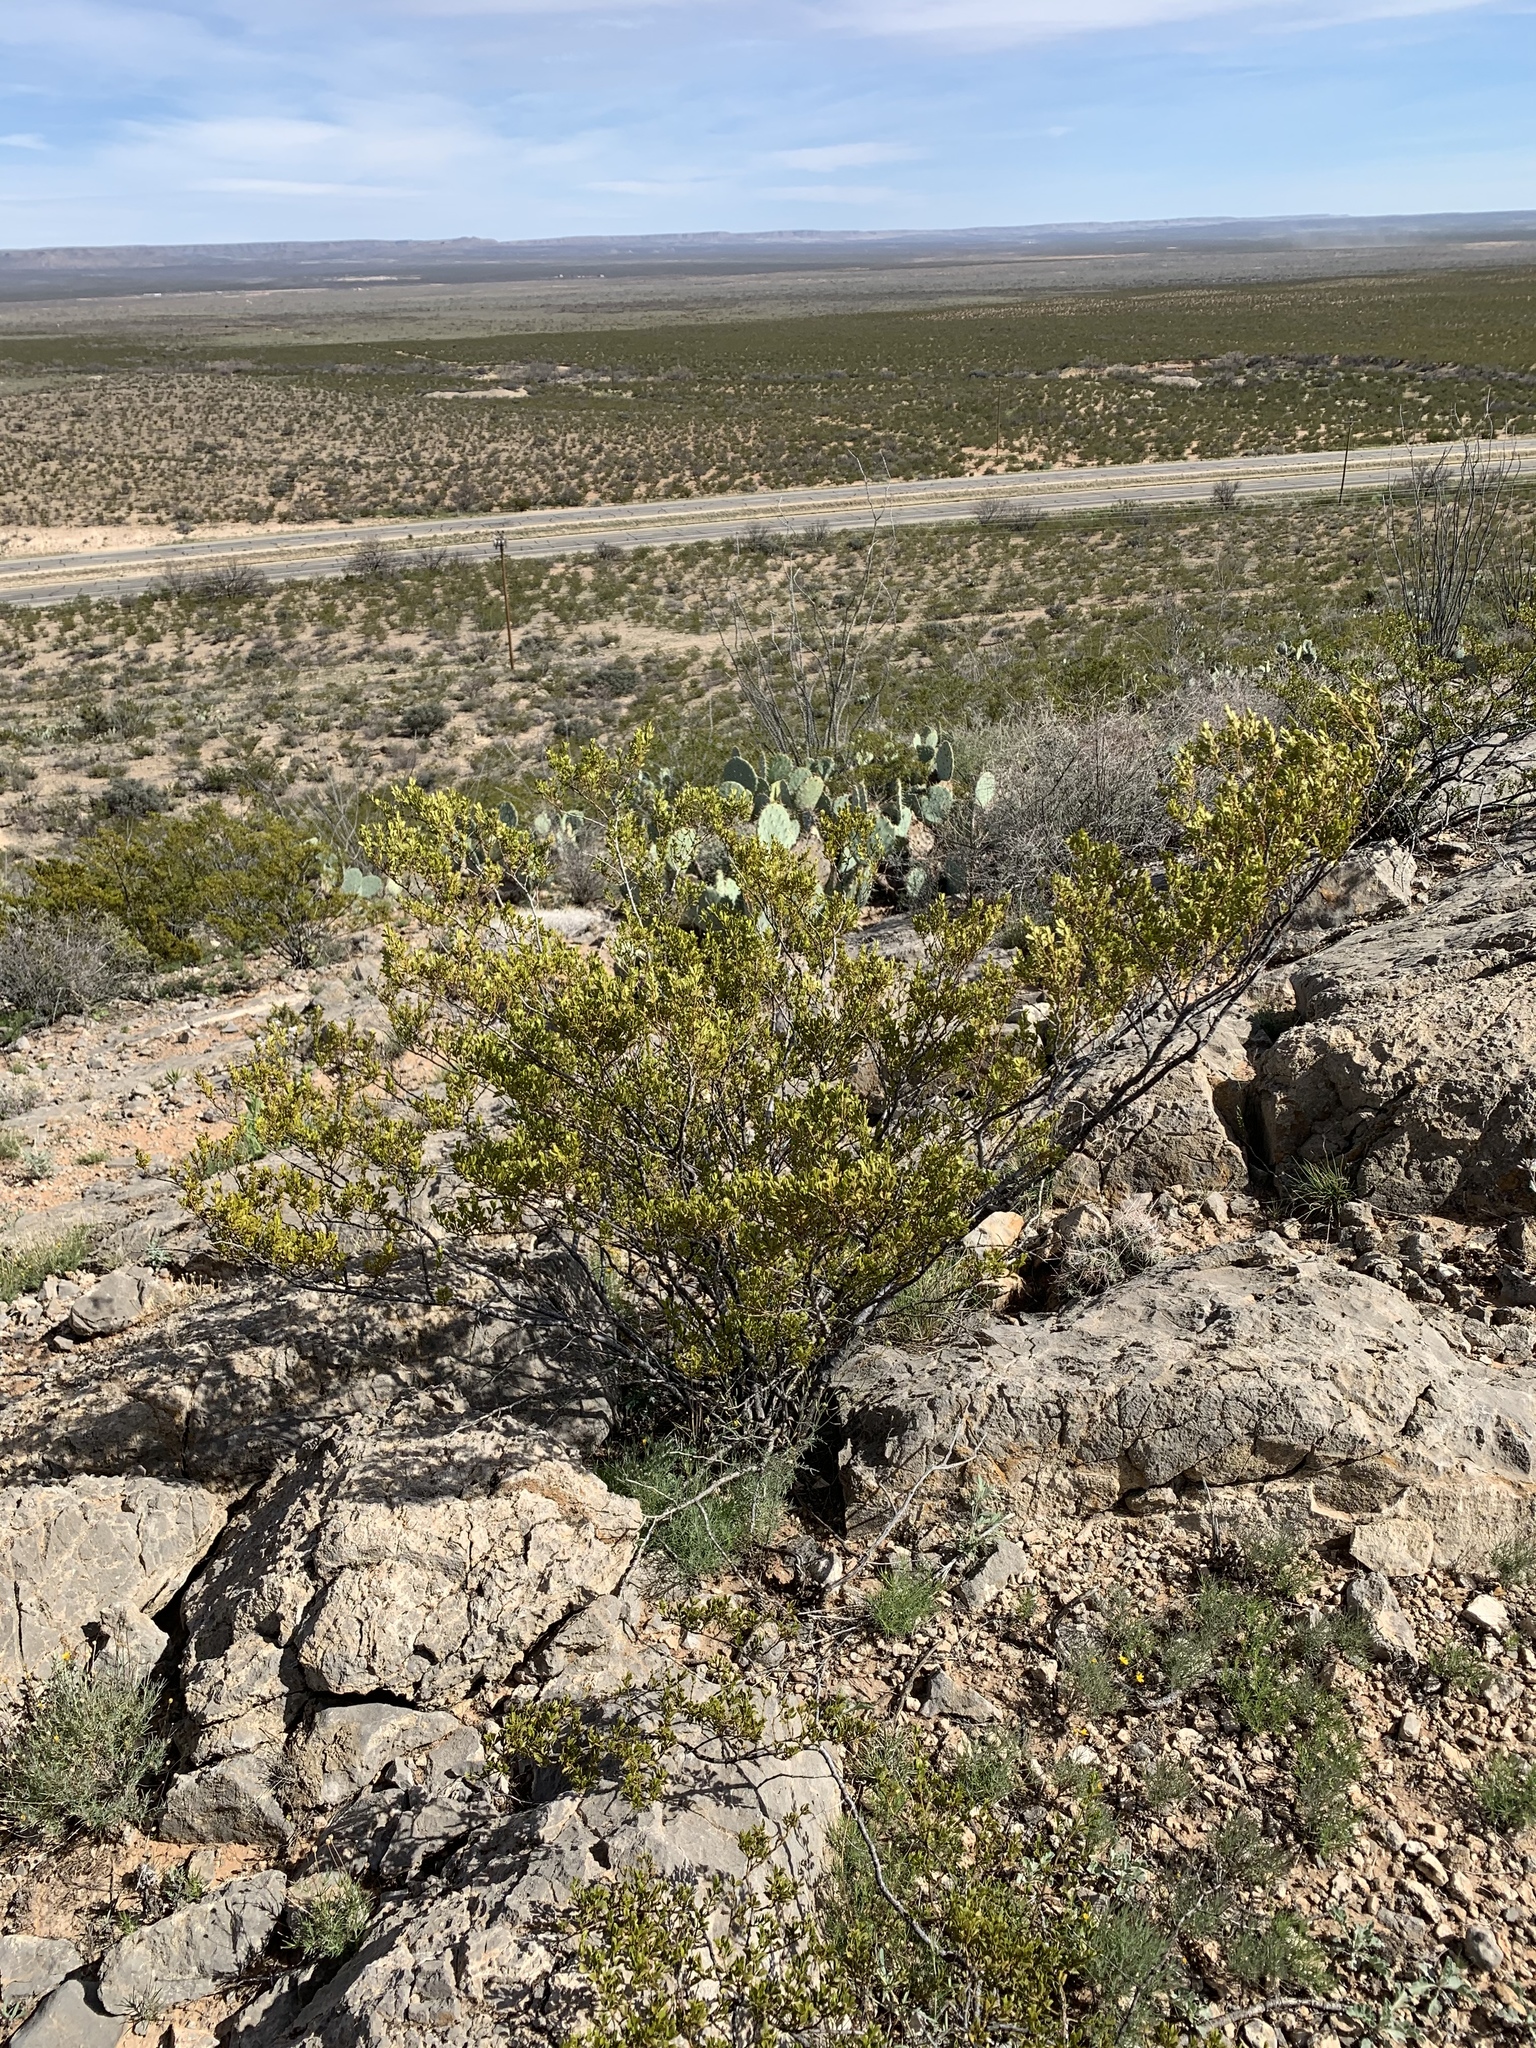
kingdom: Plantae
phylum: Tracheophyta
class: Magnoliopsida
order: Zygophyllales
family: Zygophyllaceae
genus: Larrea
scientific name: Larrea tridentata
